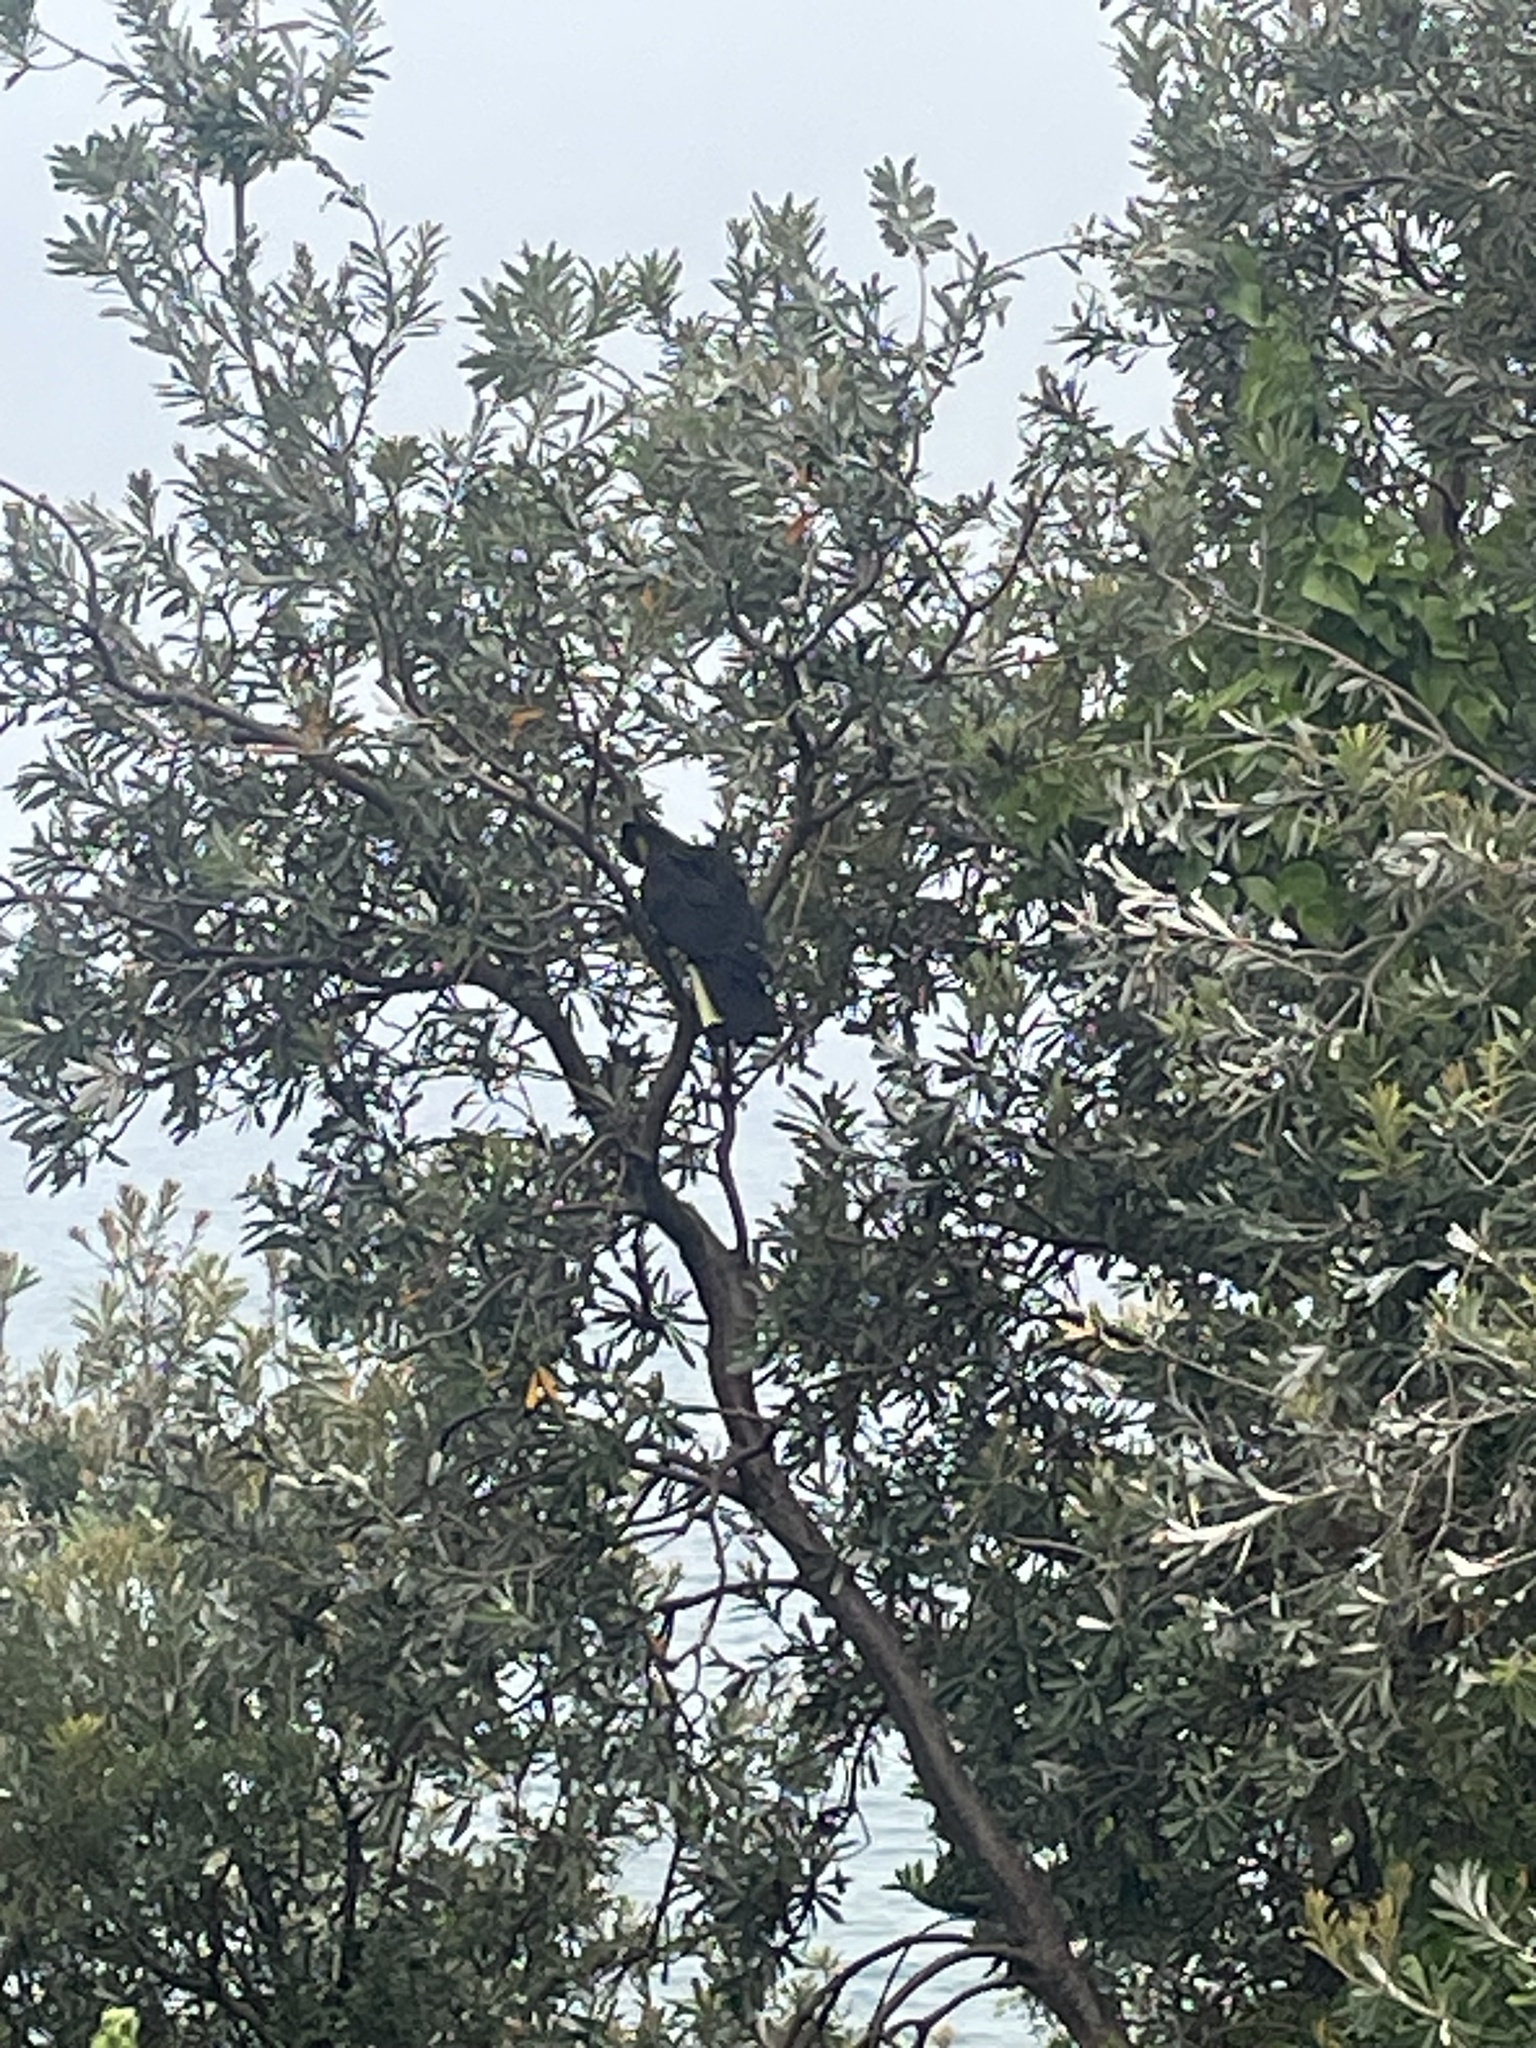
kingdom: Animalia
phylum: Chordata
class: Aves
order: Psittaciformes
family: Cacatuidae
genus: Zanda
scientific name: Zanda funerea
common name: Yellow-tailed black-cockatoo
